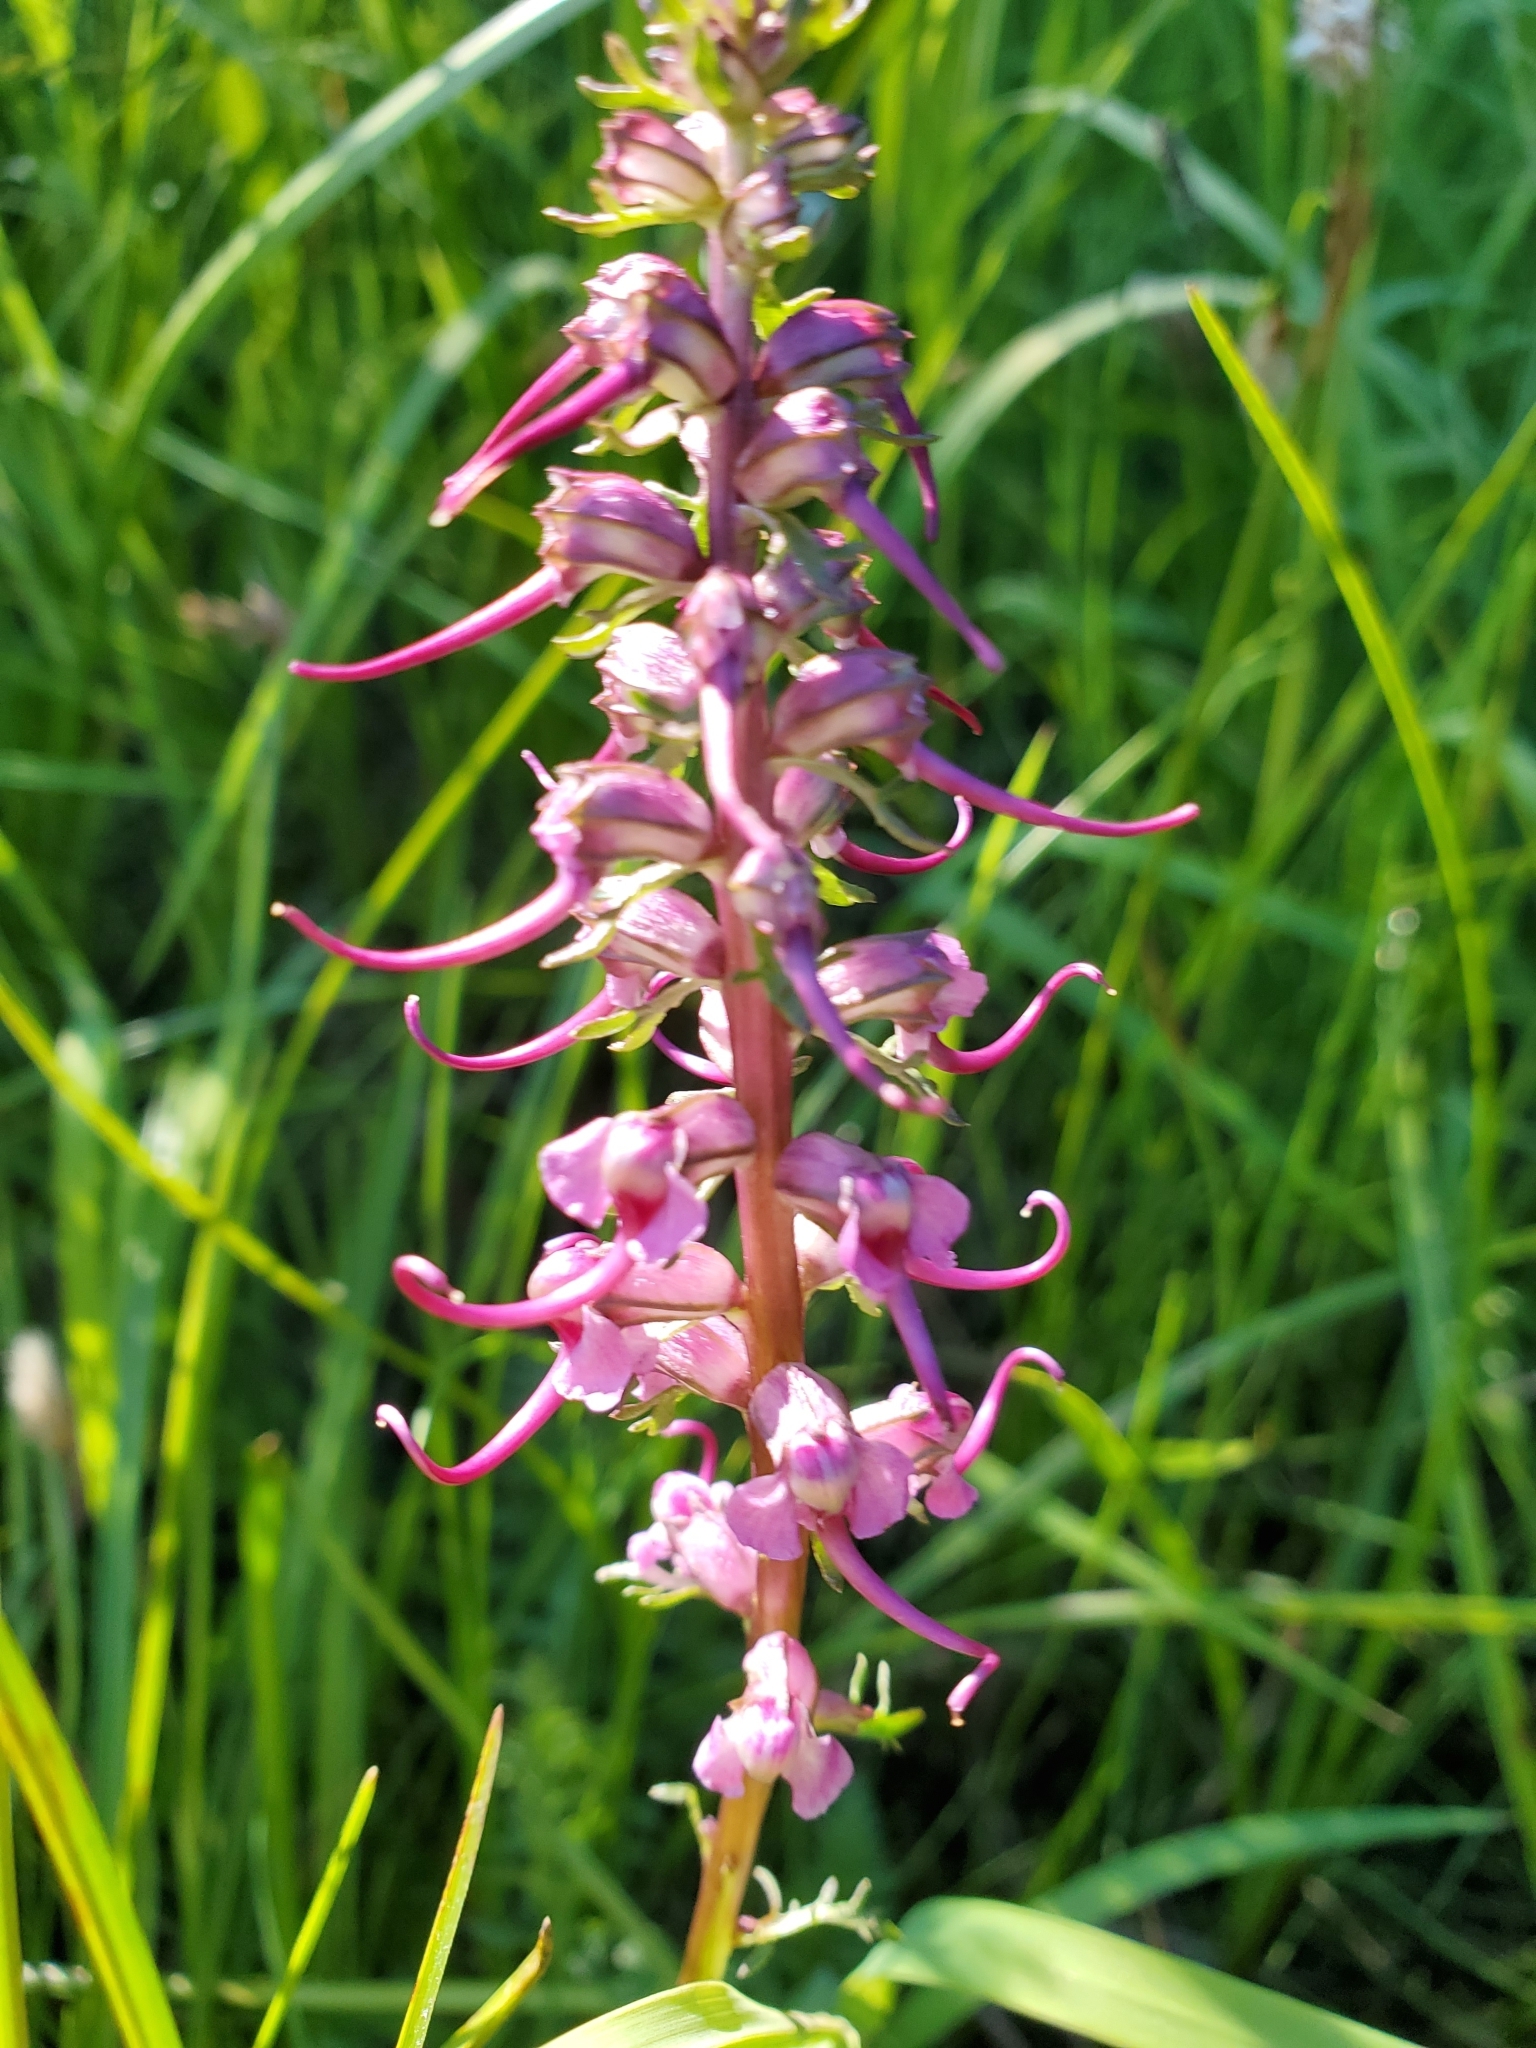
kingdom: Plantae
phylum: Tracheophyta
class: Magnoliopsida
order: Lamiales
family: Orobanchaceae
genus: Pedicularis
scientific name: Pedicularis groenlandica
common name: Elephant's-head
